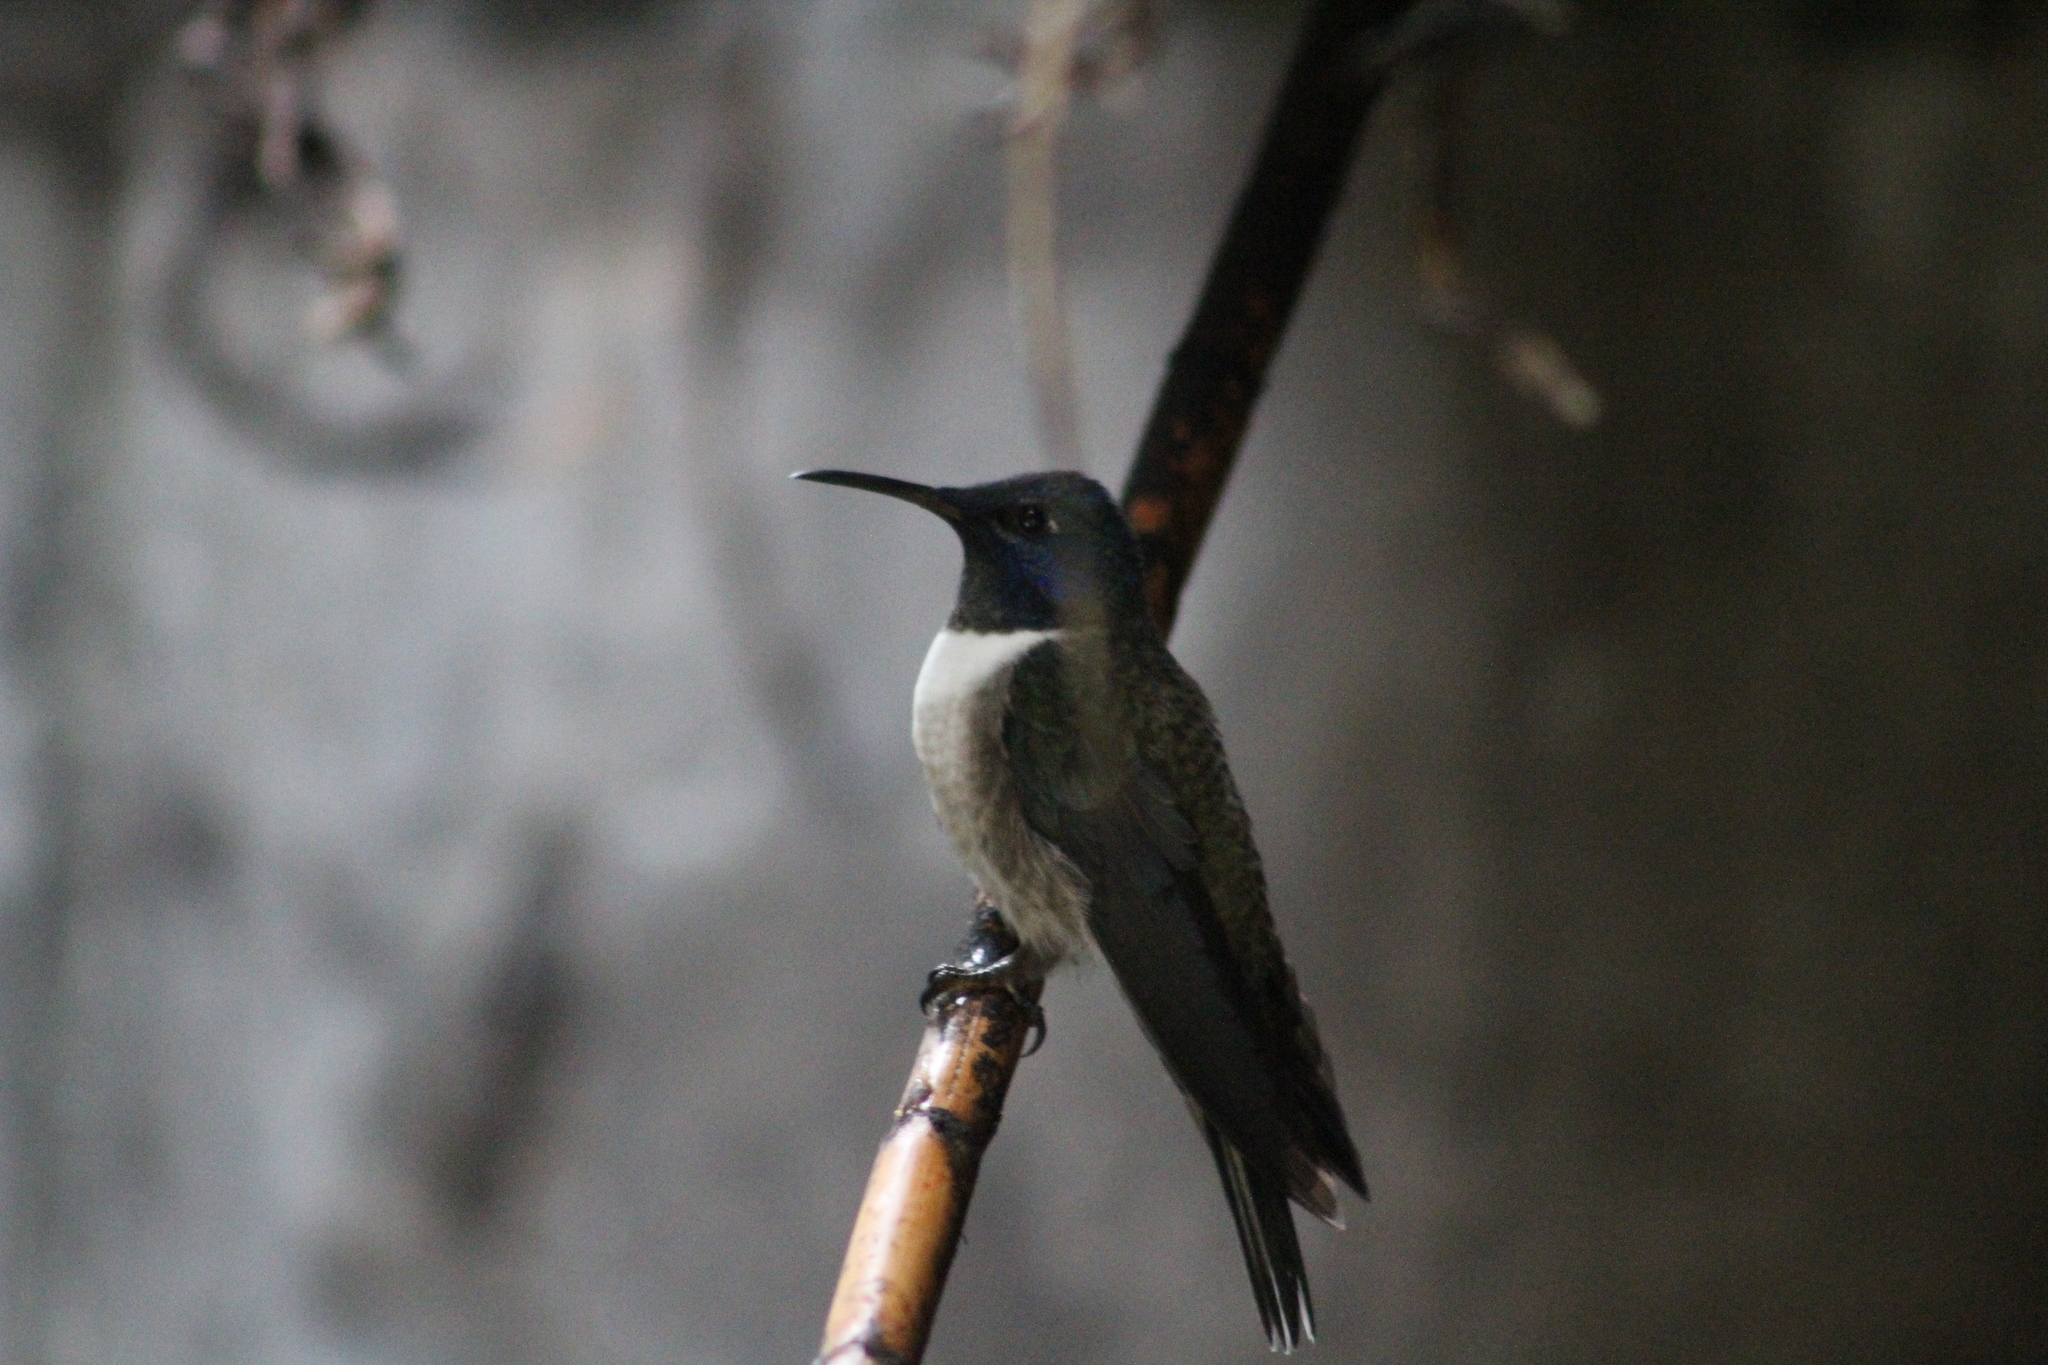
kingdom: Animalia
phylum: Chordata
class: Aves
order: Apodiformes
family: Trochilidae
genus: Oreotrochilus
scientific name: Oreotrochilus chimborazo
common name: Ecuadorian hillstar
